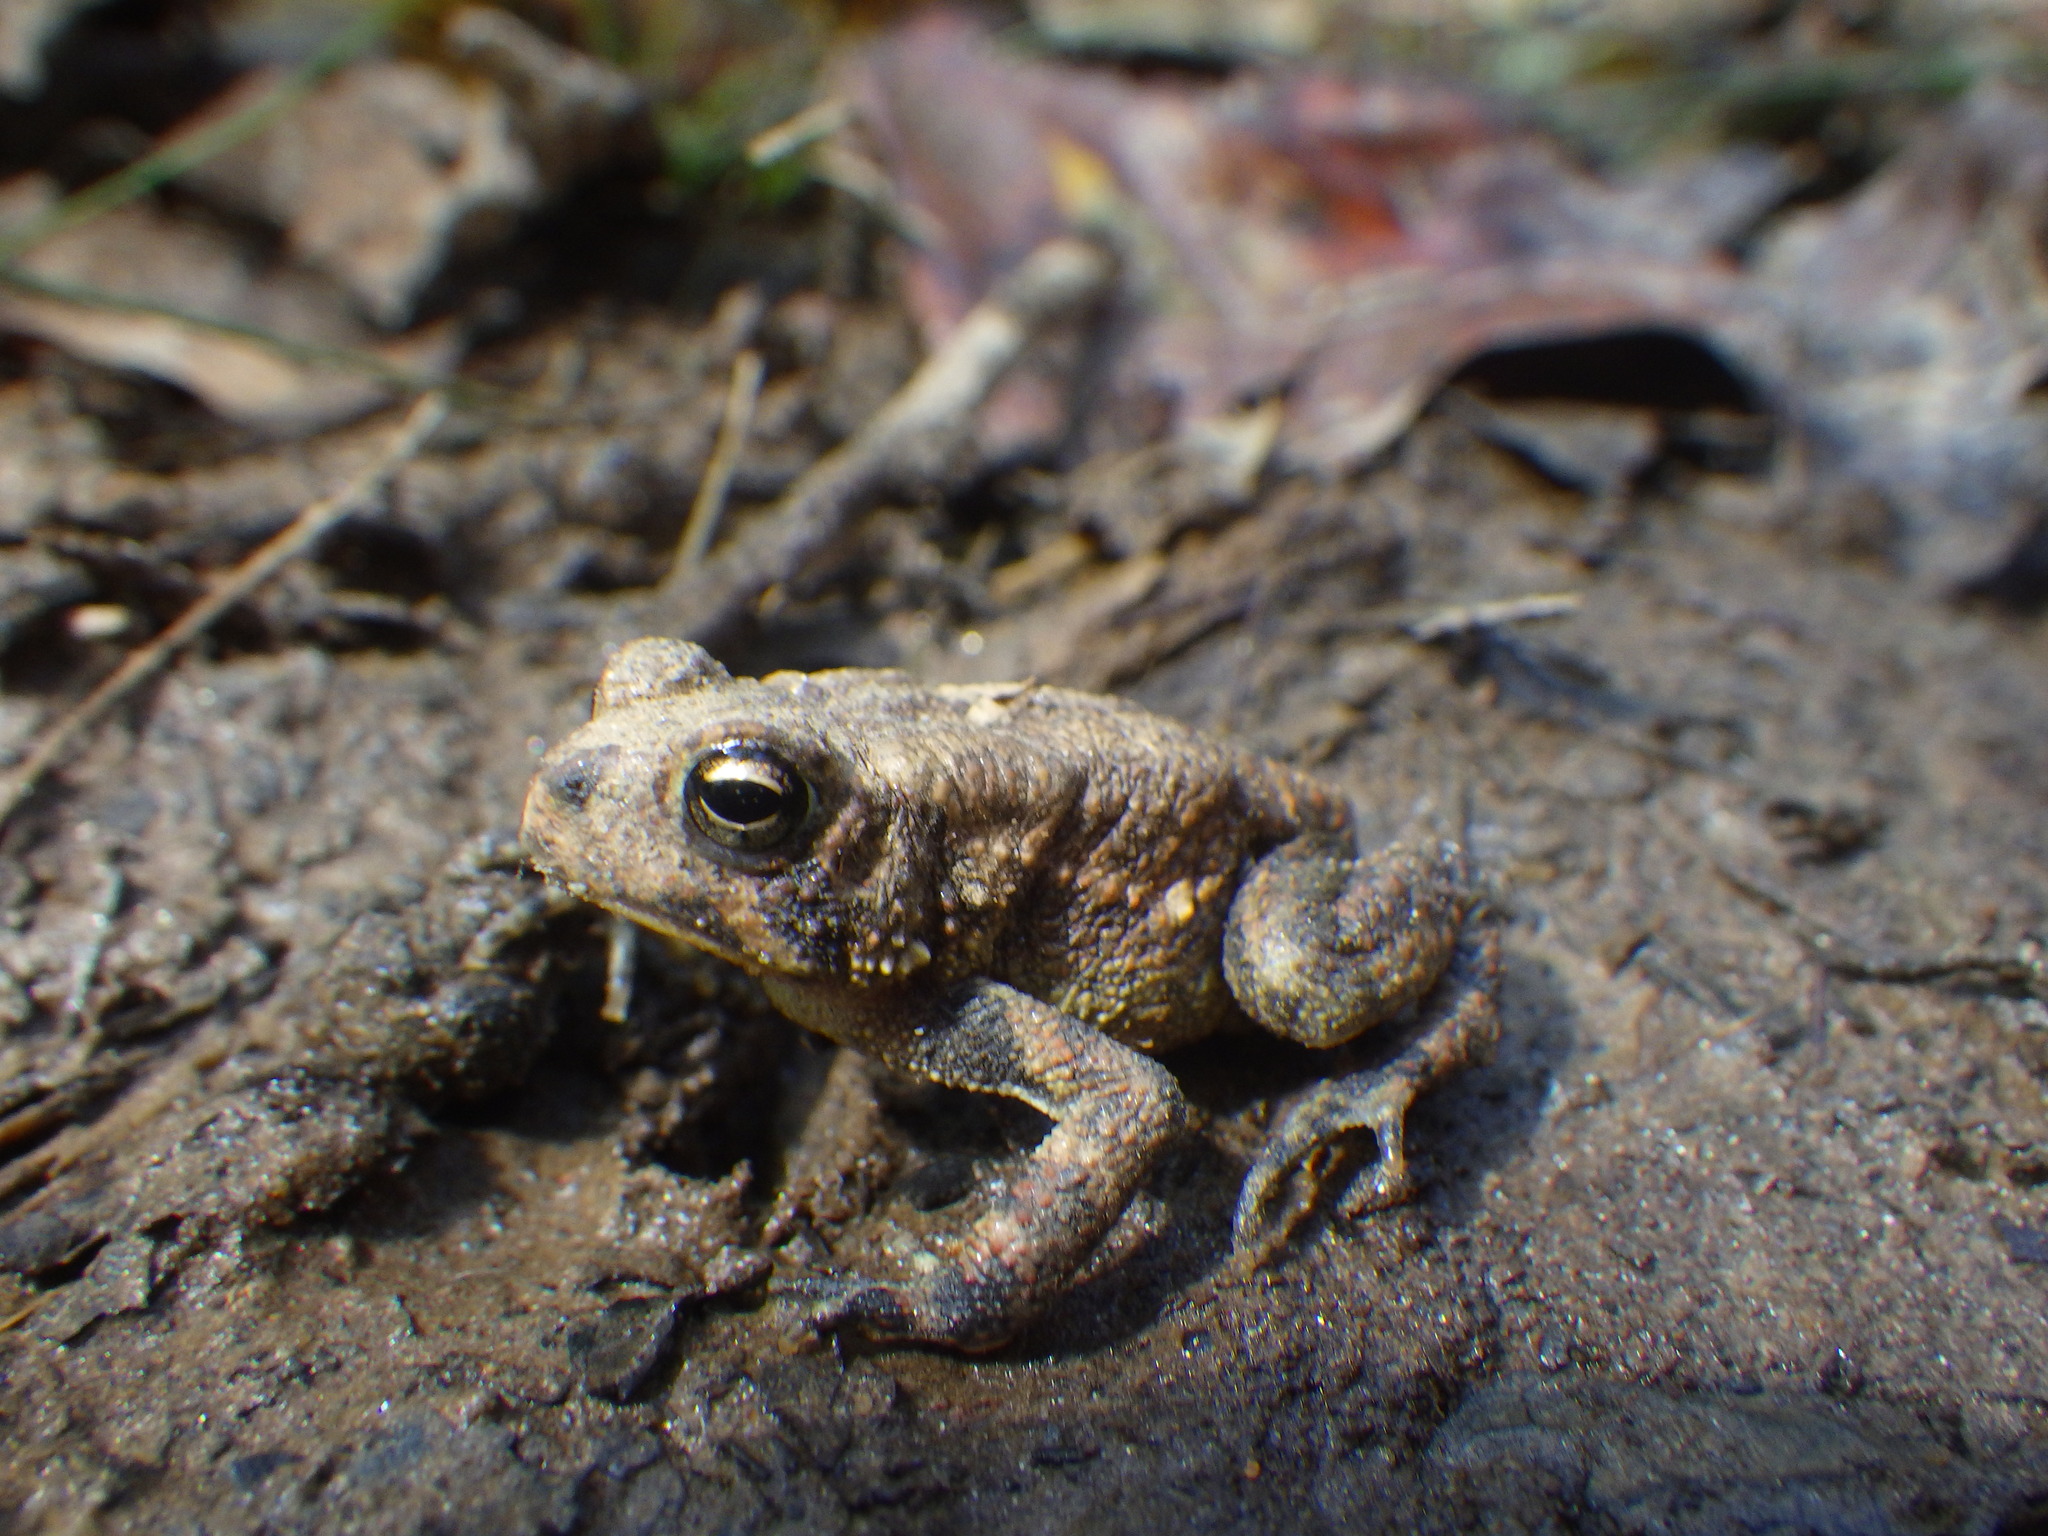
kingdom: Animalia
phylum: Chordata
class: Amphibia
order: Anura
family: Bufonidae
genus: Anaxyrus
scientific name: Anaxyrus americanus
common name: American toad
